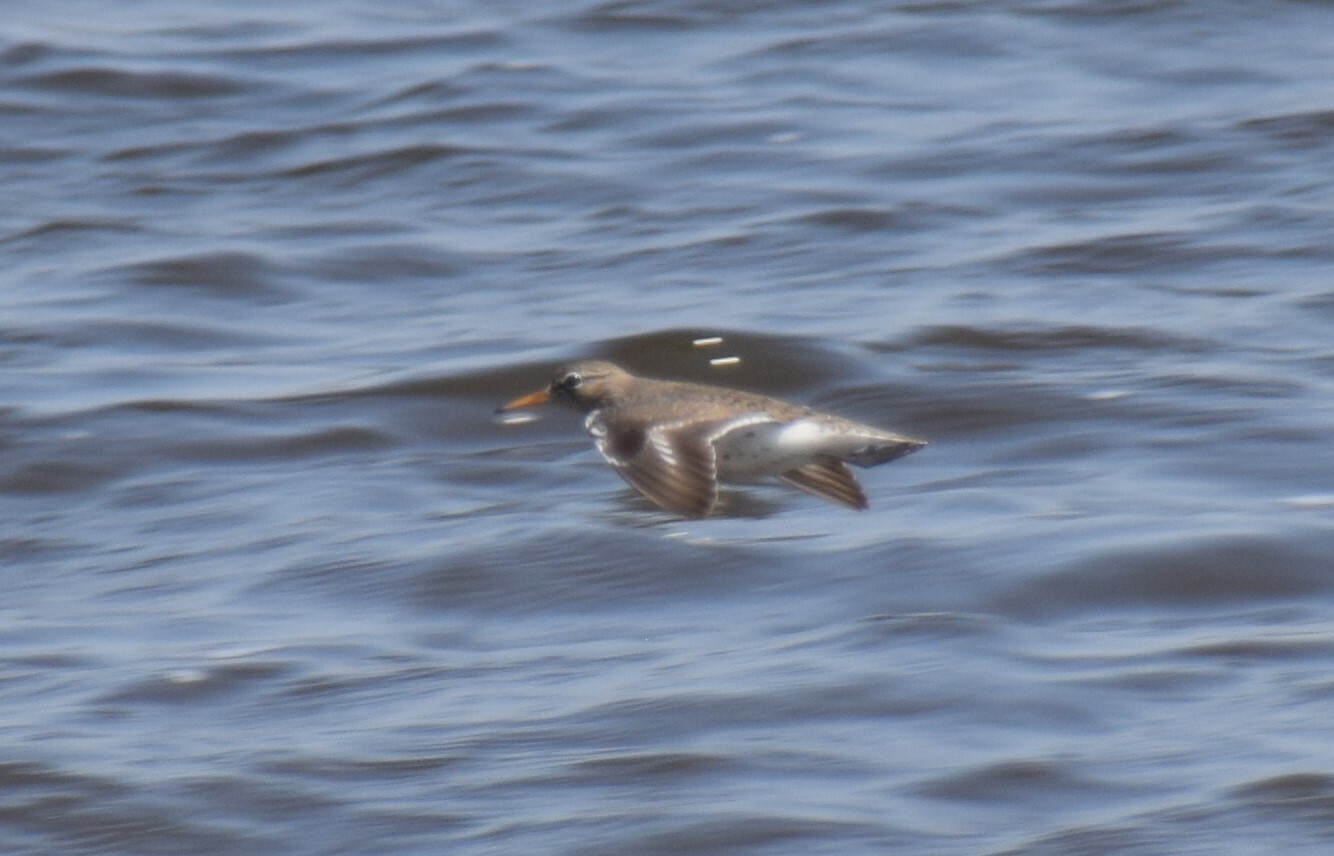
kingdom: Animalia
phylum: Chordata
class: Aves
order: Charadriiformes
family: Scolopacidae
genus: Actitis
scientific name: Actitis macularius
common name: Spotted sandpiper
